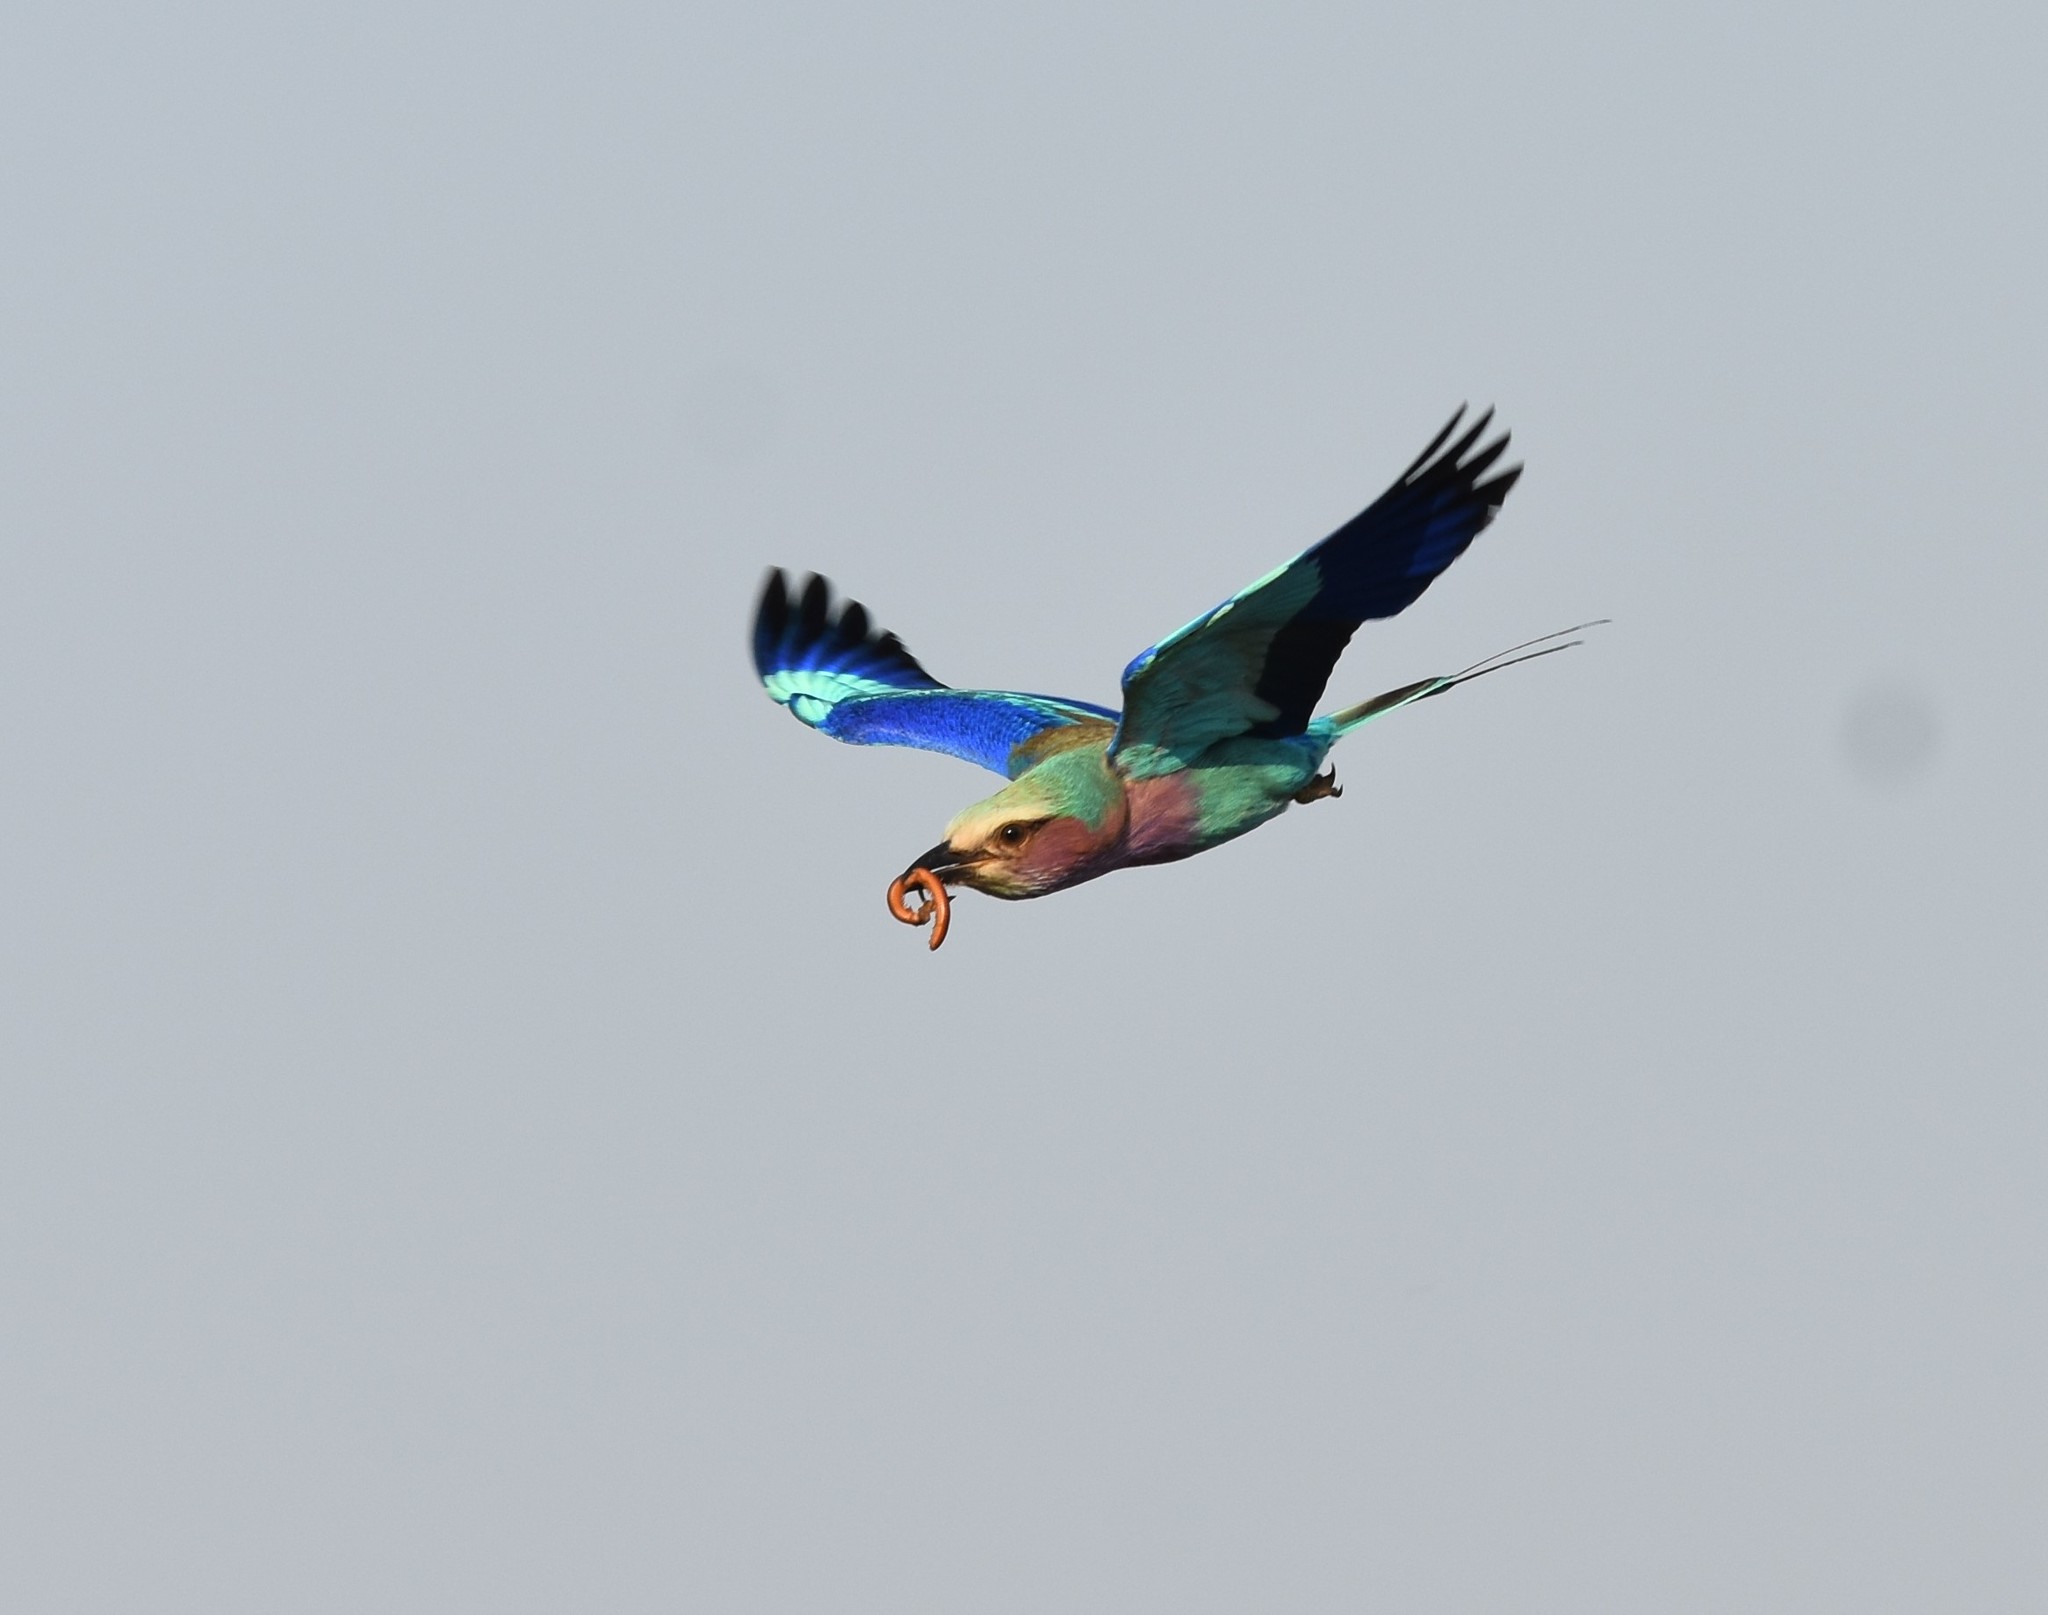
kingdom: Animalia
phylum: Chordata
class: Aves
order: Coraciiformes
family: Coraciidae
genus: Coracias
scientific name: Coracias caudatus
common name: Lilac-breasted roller
